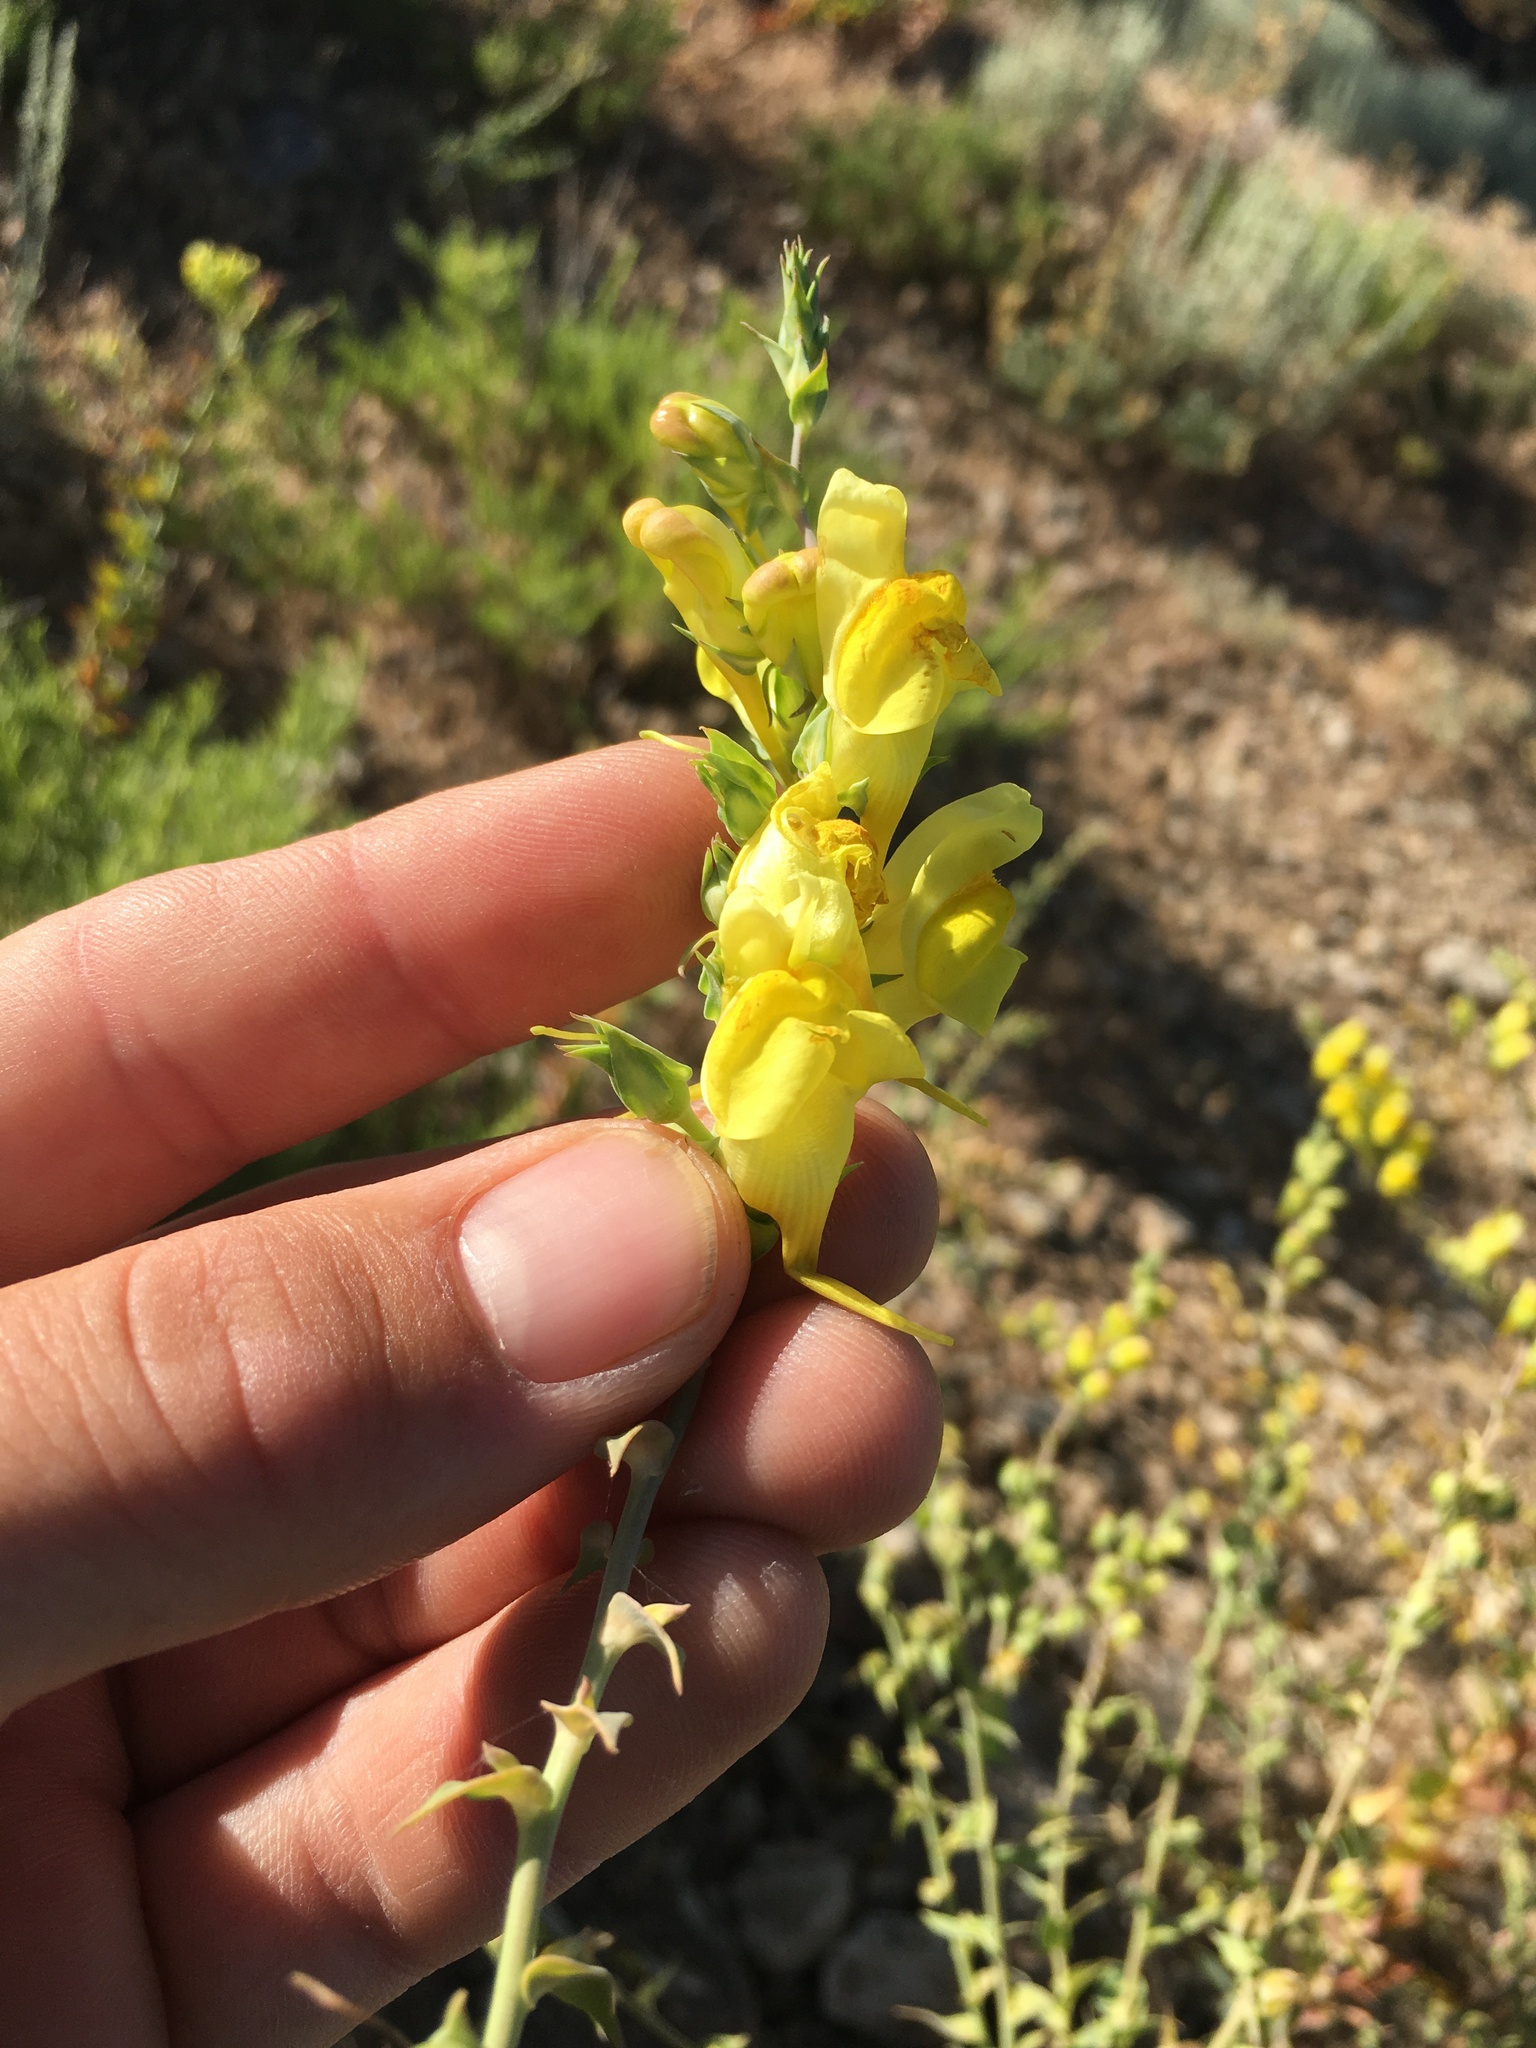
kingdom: Plantae
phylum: Tracheophyta
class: Magnoliopsida
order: Lamiales
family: Plantaginaceae
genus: Linaria
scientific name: Linaria dalmatica
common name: Dalmatian toadflax
